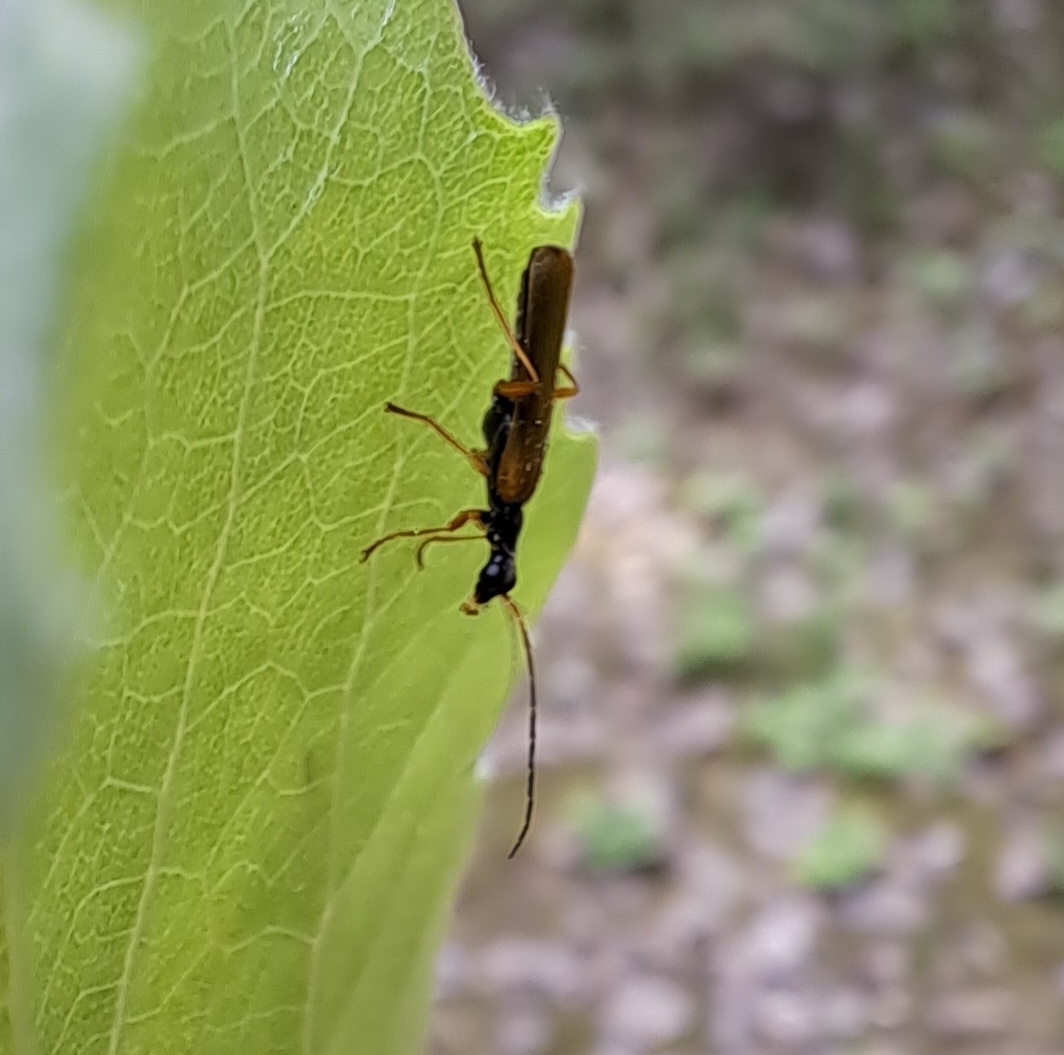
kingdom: Animalia
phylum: Arthropoda
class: Insecta
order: Coleoptera
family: Cantharidae
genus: Rhagonycha
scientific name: Rhagonycha lignosa
